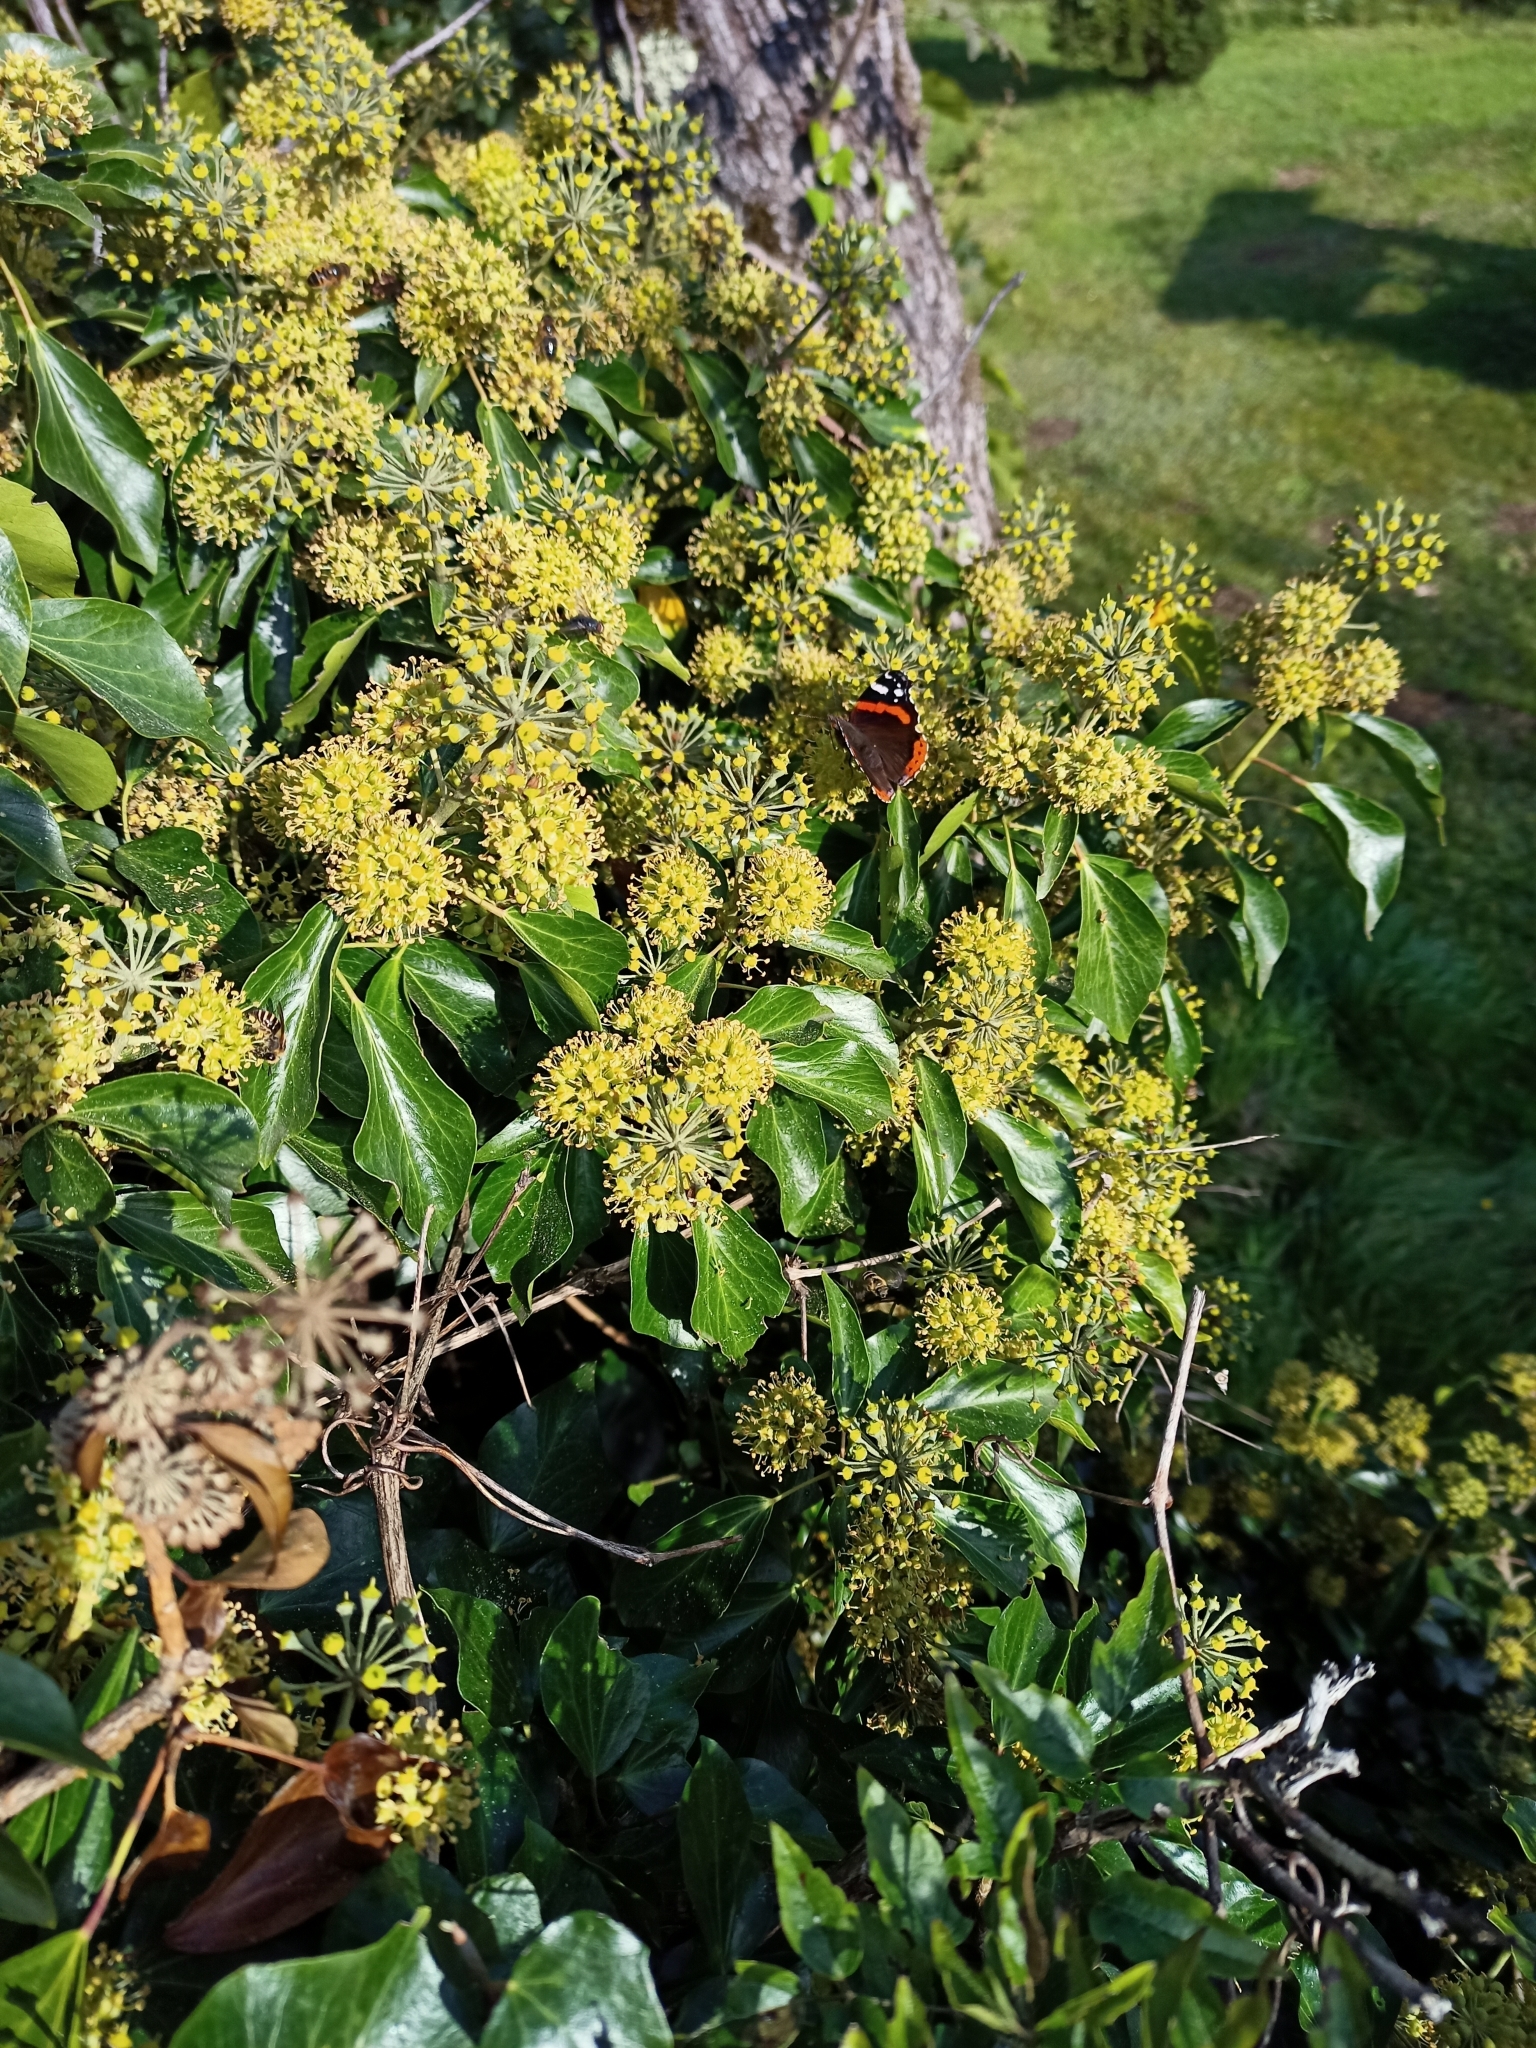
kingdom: Animalia
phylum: Arthropoda
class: Insecta
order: Lepidoptera
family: Nymphalidae
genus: Vanessa
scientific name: Vanessa atalanta
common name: Red admiral
